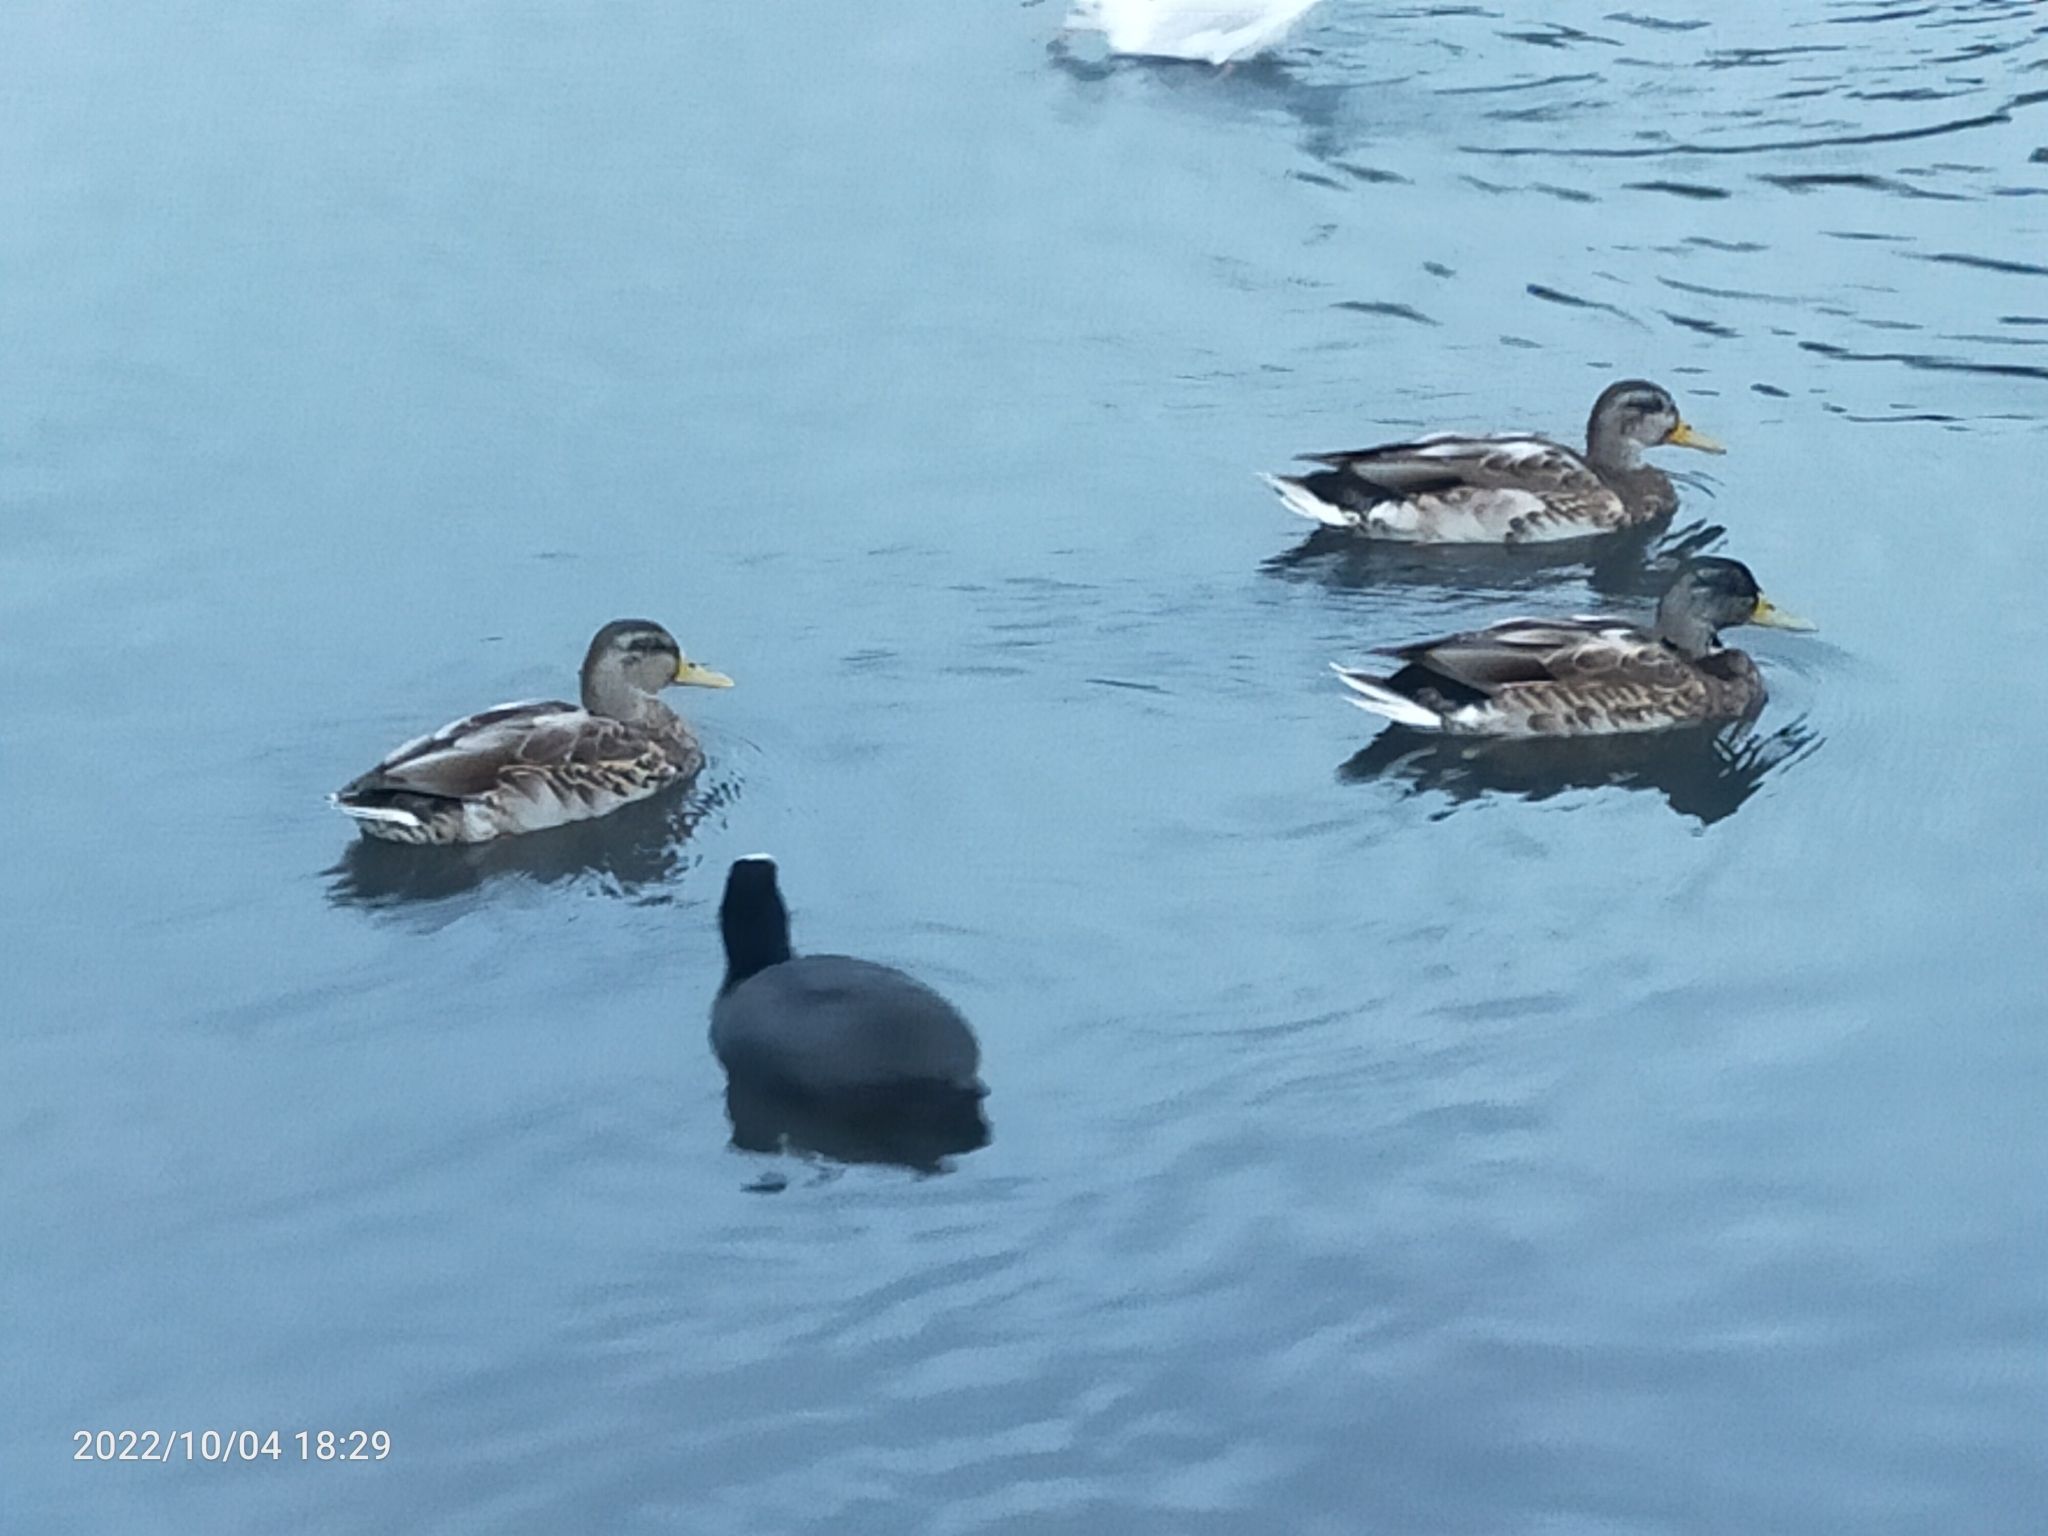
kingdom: Animalia
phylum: Chordata
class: Aves
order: Anseriformes
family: Anatidae
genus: Anas
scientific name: Anas platyrhynchos
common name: Mallard
